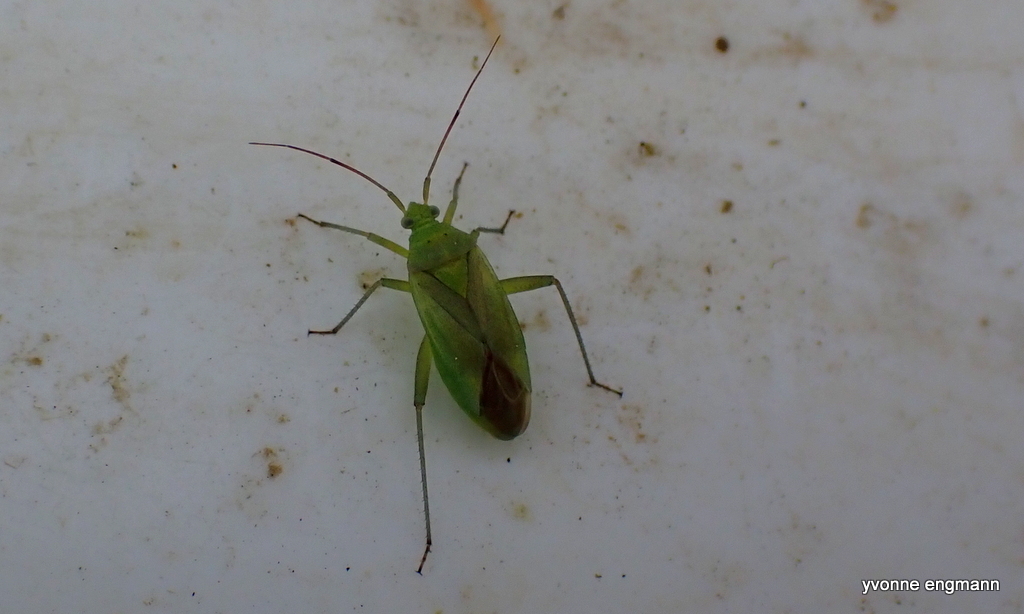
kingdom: Animalia
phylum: Arthropoda
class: Insecta
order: Hemiptera
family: Miridae
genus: Closterotomus
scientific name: Closterotomus norvegicus
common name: Plant bug
